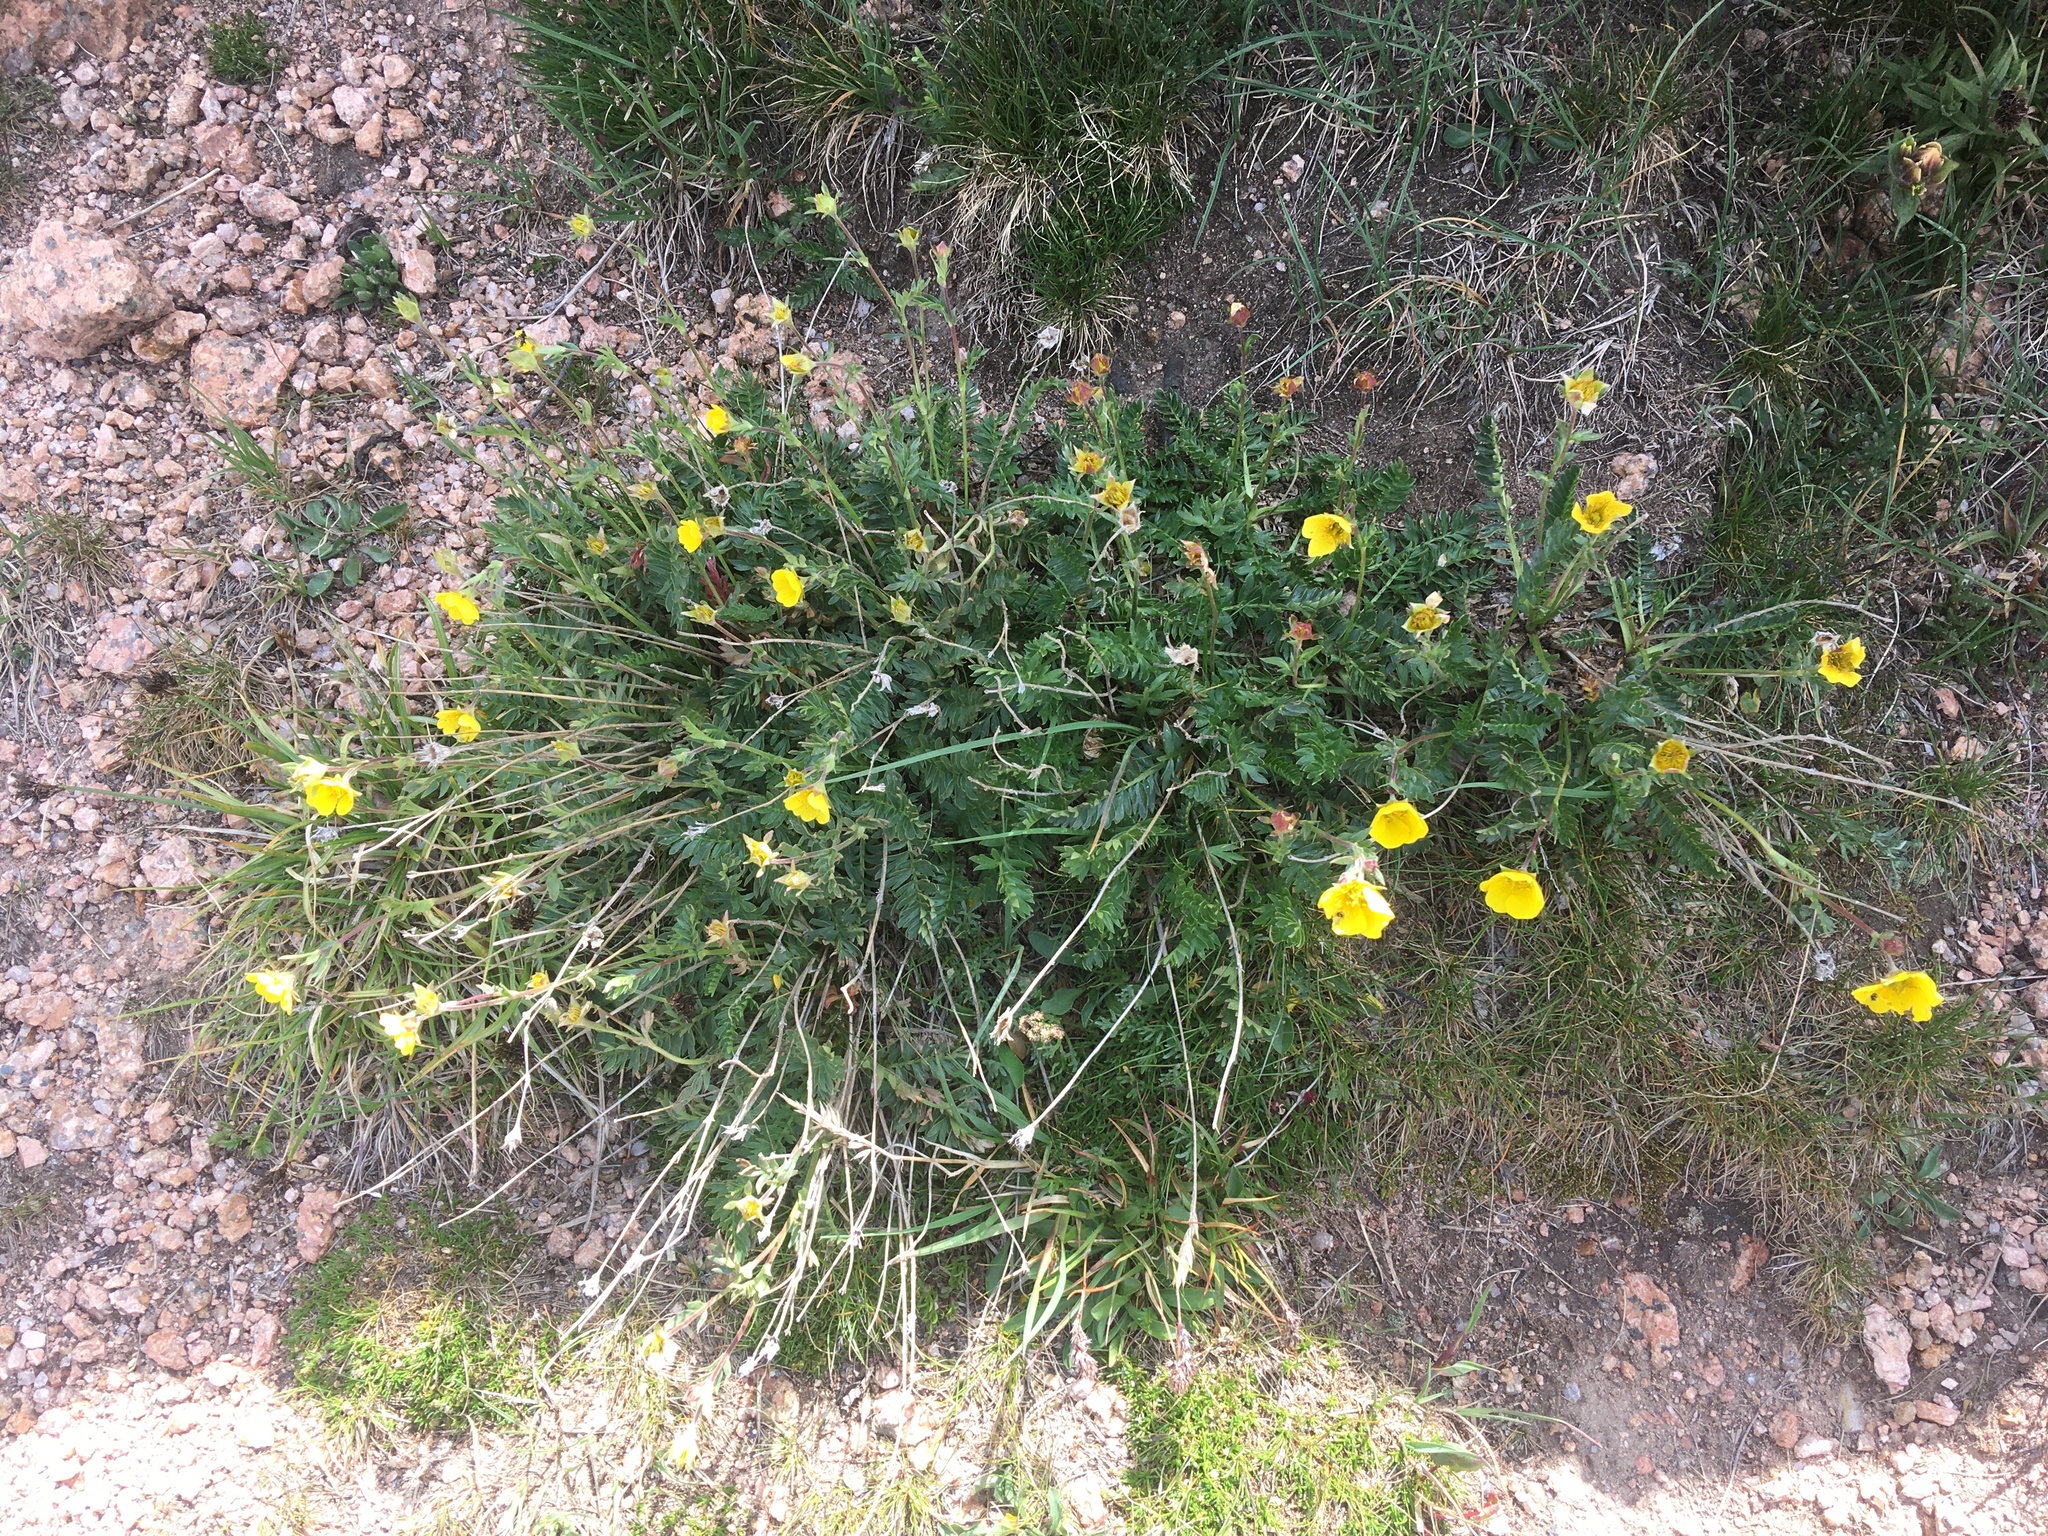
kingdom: Plantae
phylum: Tracheophyta
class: Magnoliopsida
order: Rosales
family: Rosaceae
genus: Geum
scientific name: Geum rossii
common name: Alpine avens
